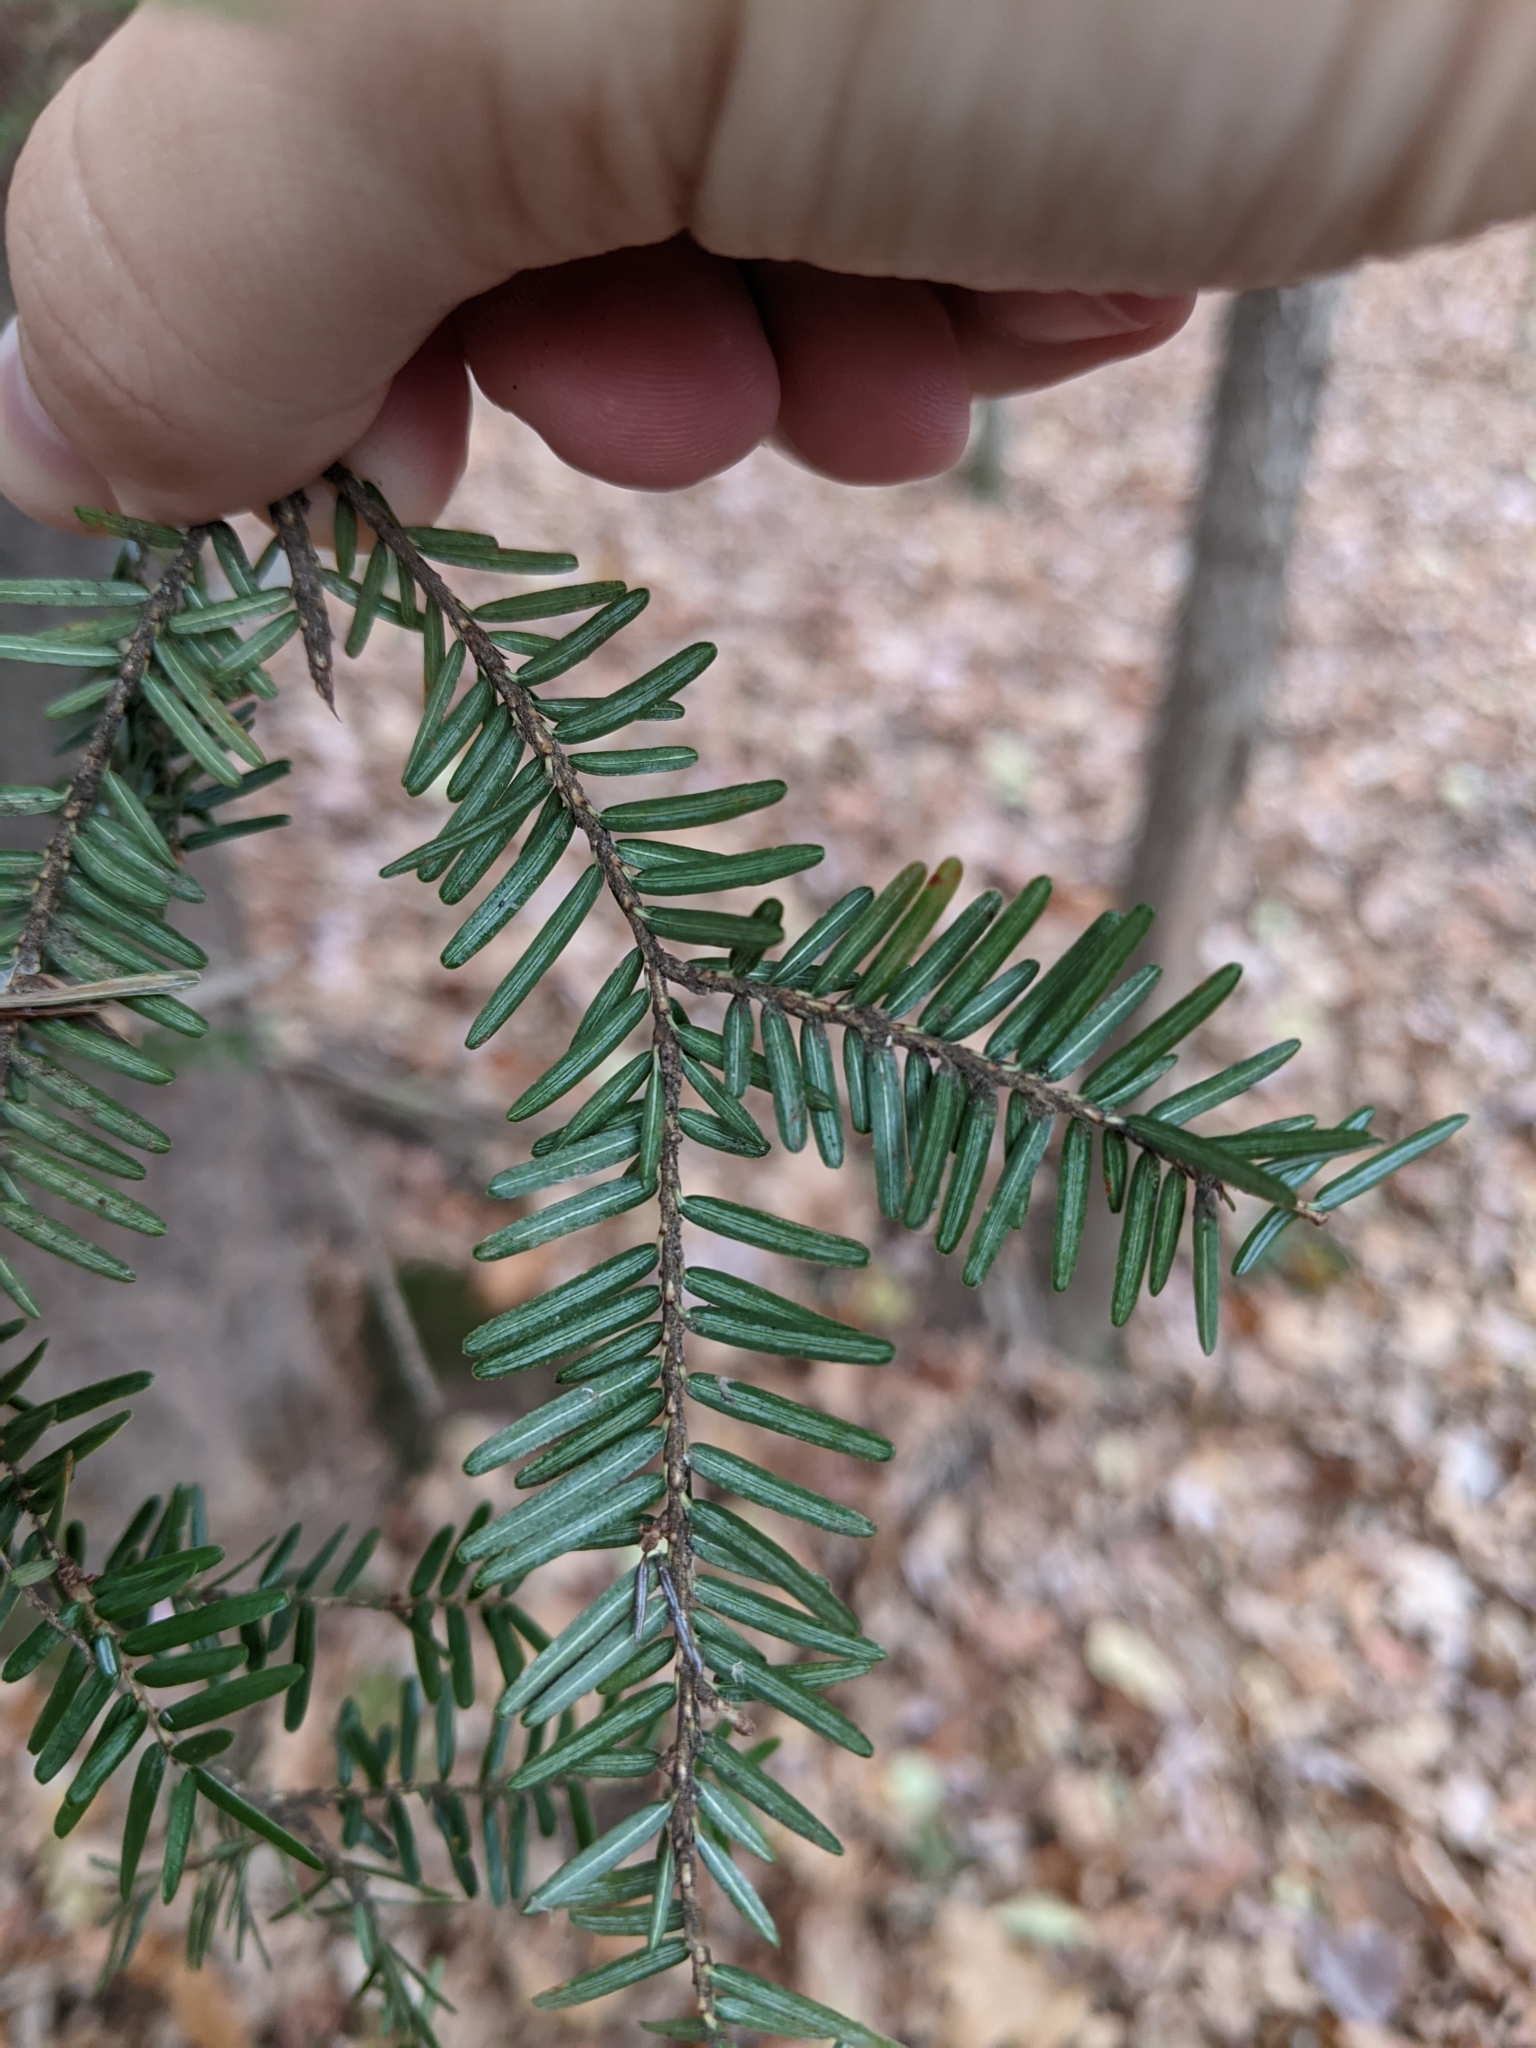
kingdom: Plantae
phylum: Tracheophyta
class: Pinopsida
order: Pinales
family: Pinaceae
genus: Tsuga
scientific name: Tsuga canadensis
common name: Eastern hemlock
